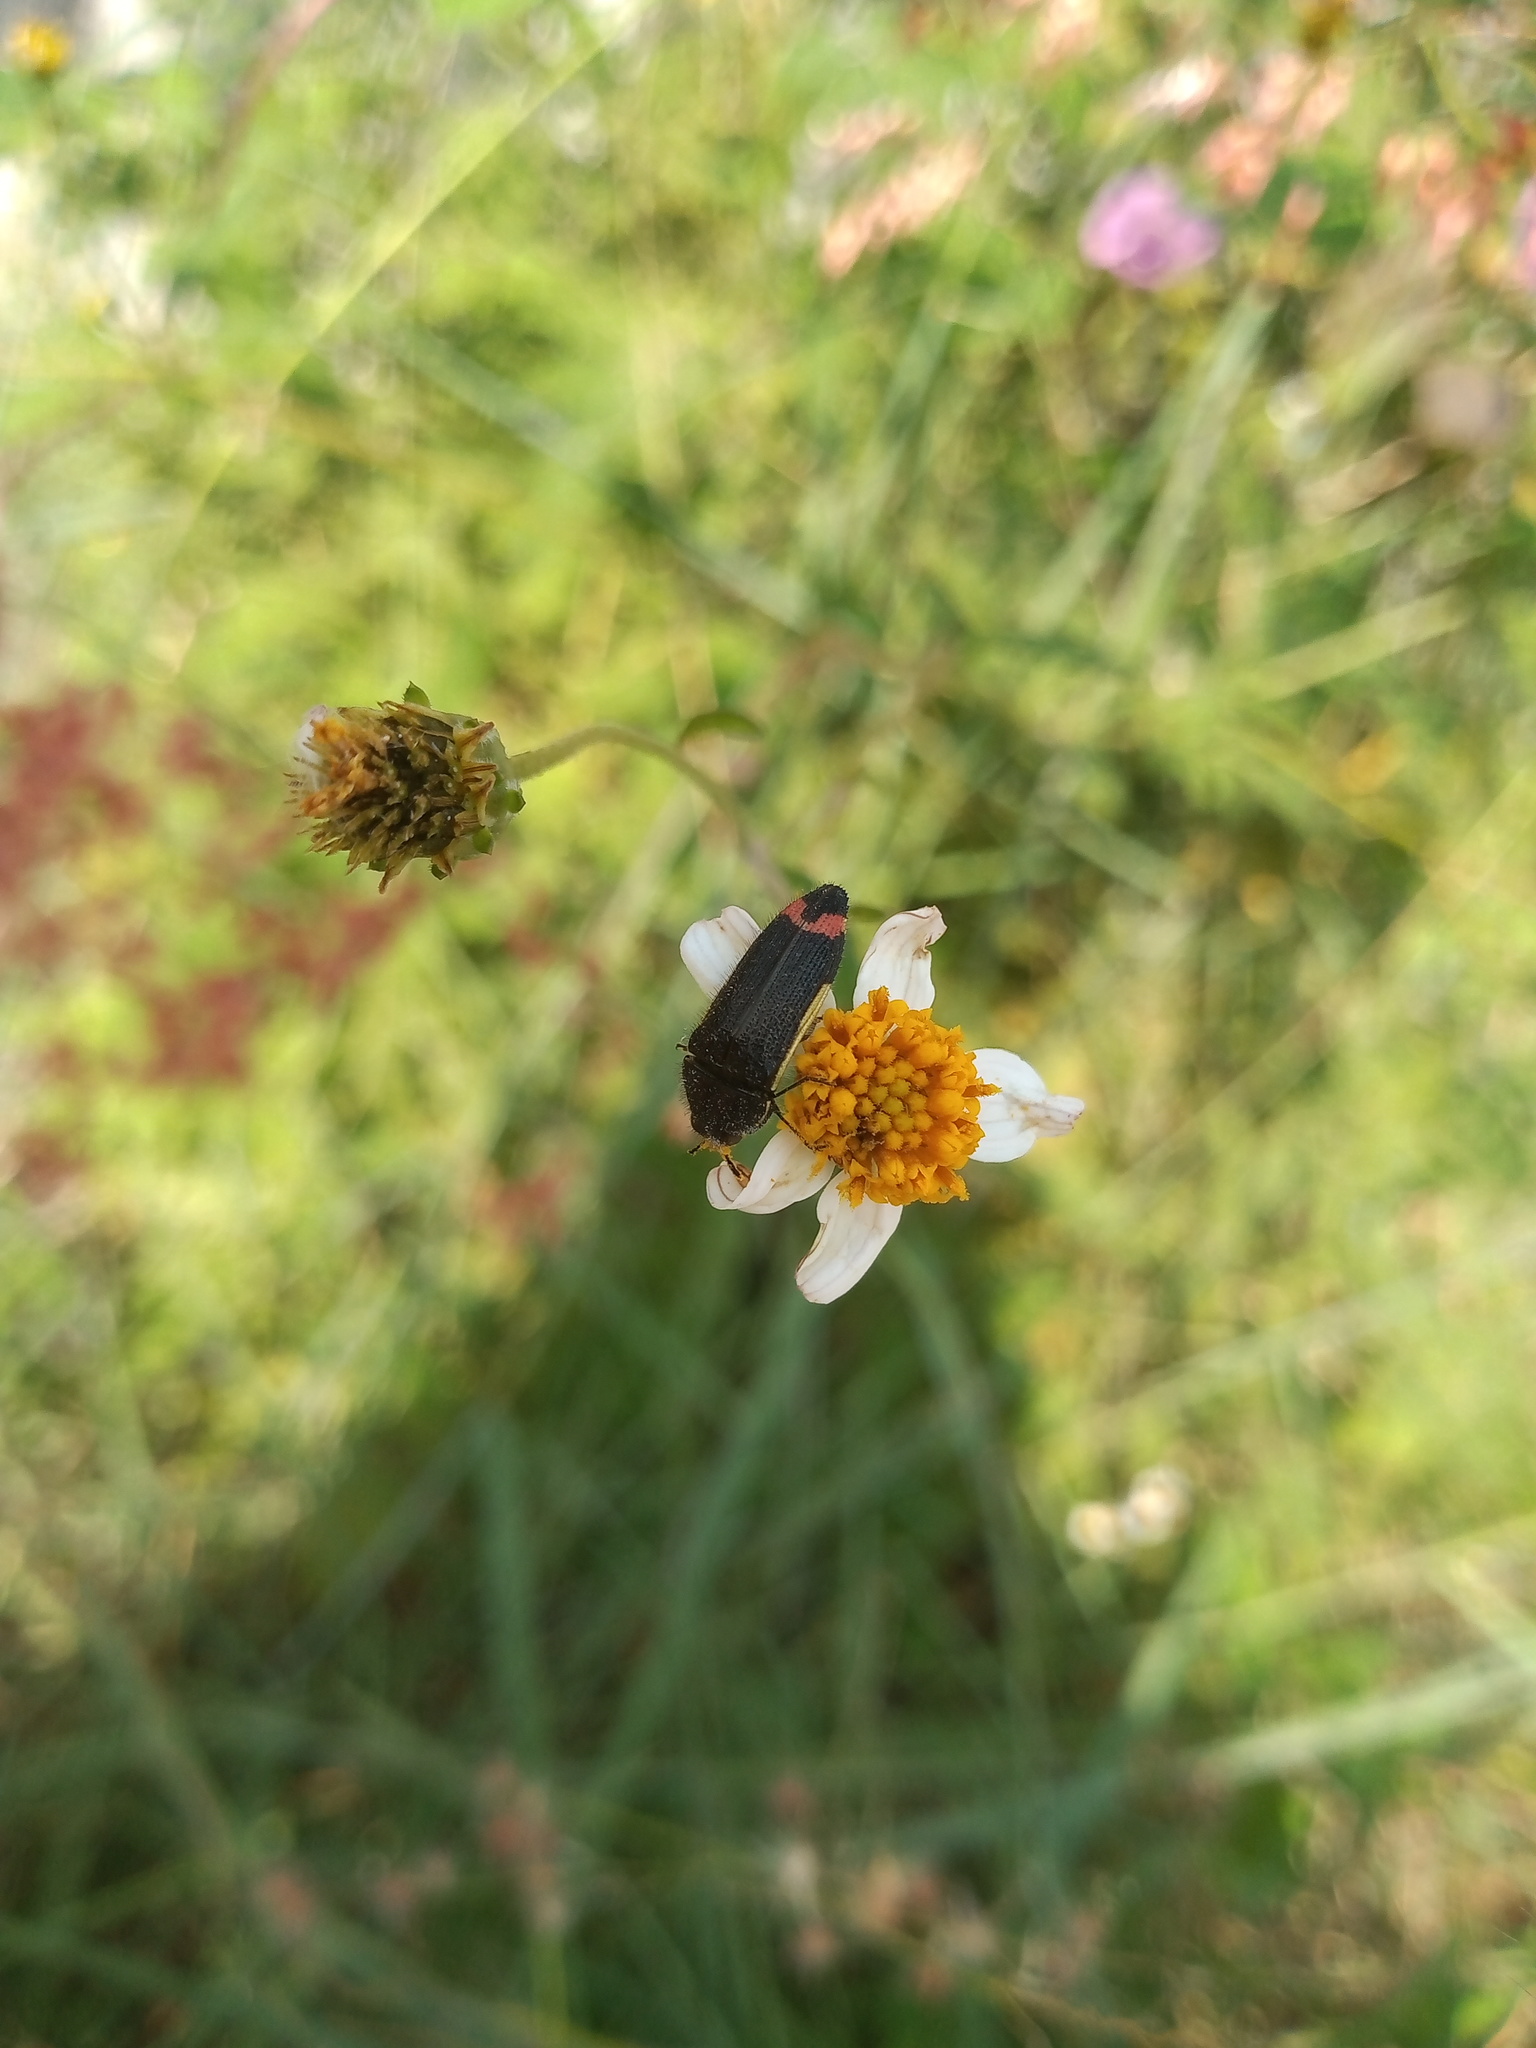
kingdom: Animalia
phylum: Arthropoda
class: Insecta
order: Coleoptera
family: Buprestidae
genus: Acmaeodera
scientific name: Acmaeodera flavomarginata
